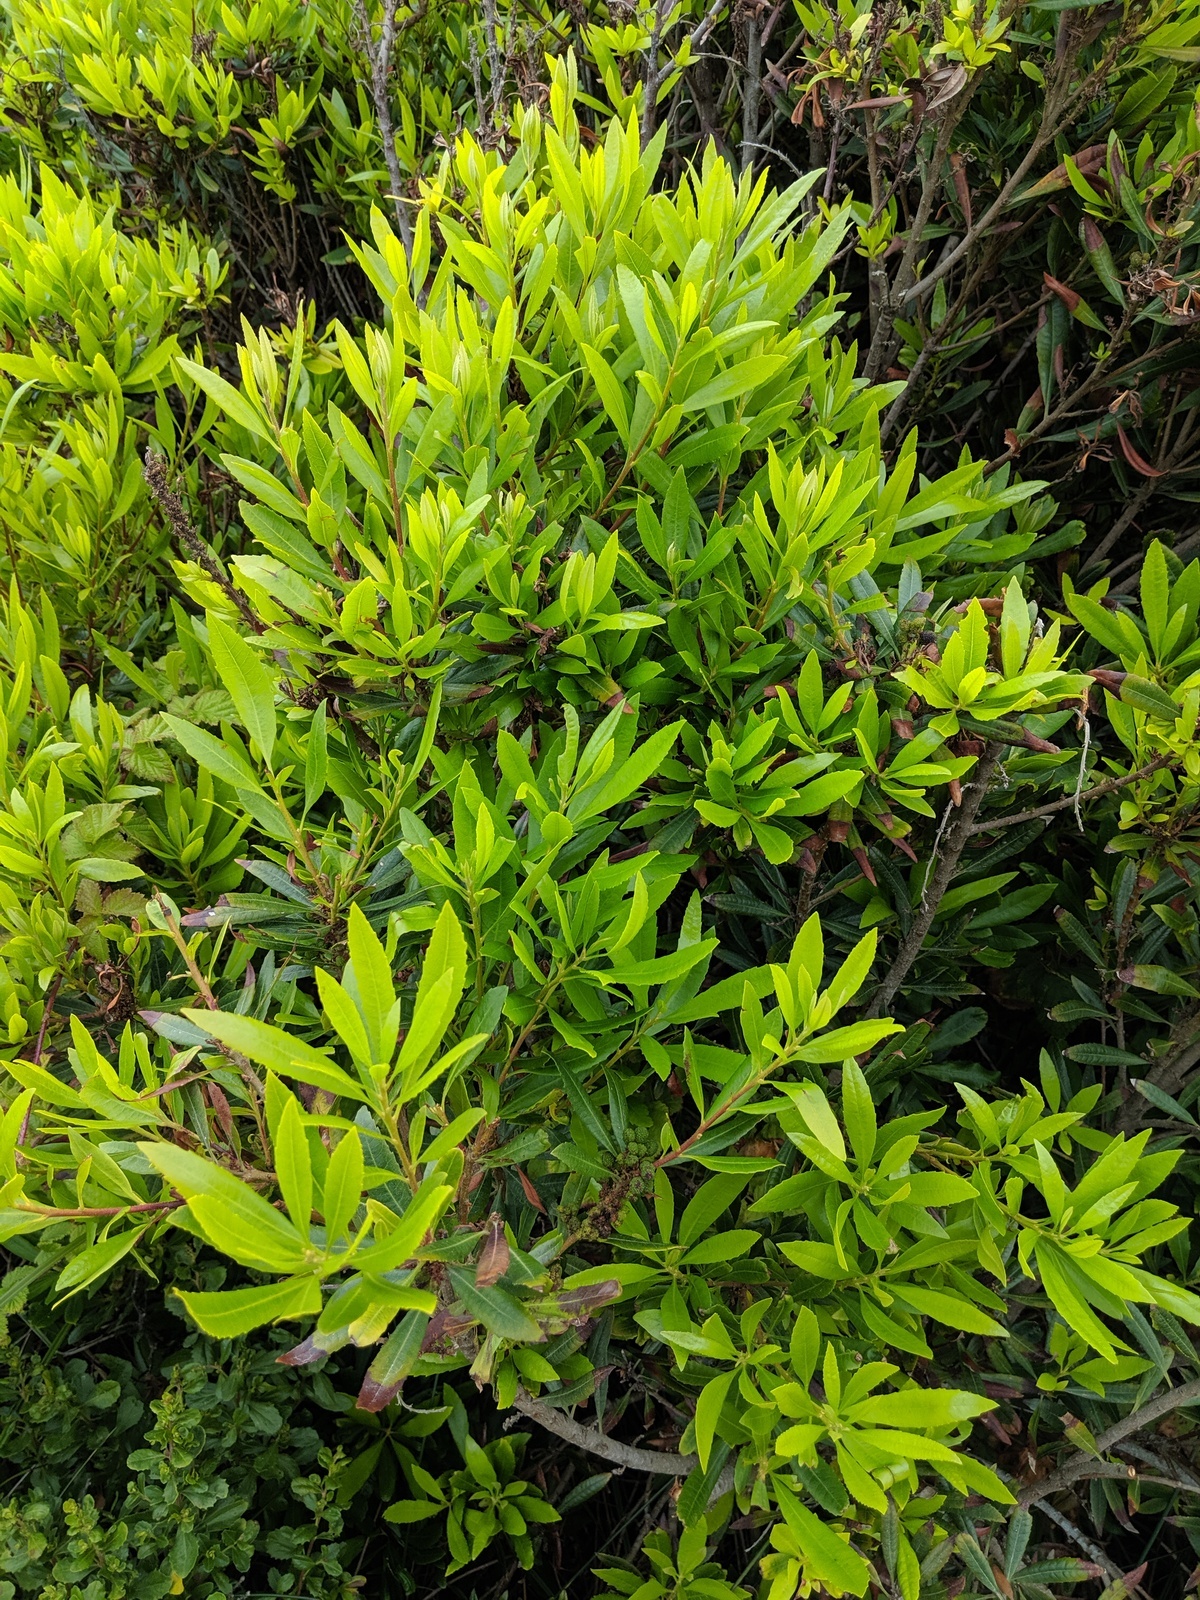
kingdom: Plantae
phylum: Tracheophyta
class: Magnoliopsida
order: Fagales
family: Myricaceae
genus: Morella
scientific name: Morella californica
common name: California wax-myrtle
